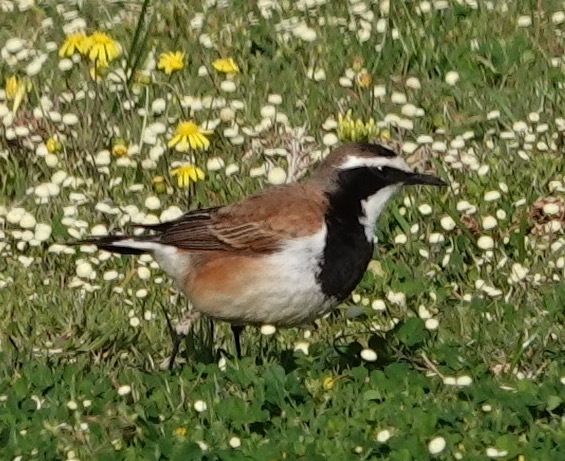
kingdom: Animalia
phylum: Chordata
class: Aves
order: Passeriformes
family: Muscicapidae
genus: Oenanthe
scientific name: Oenanthe pileata
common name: Capped wheatear
